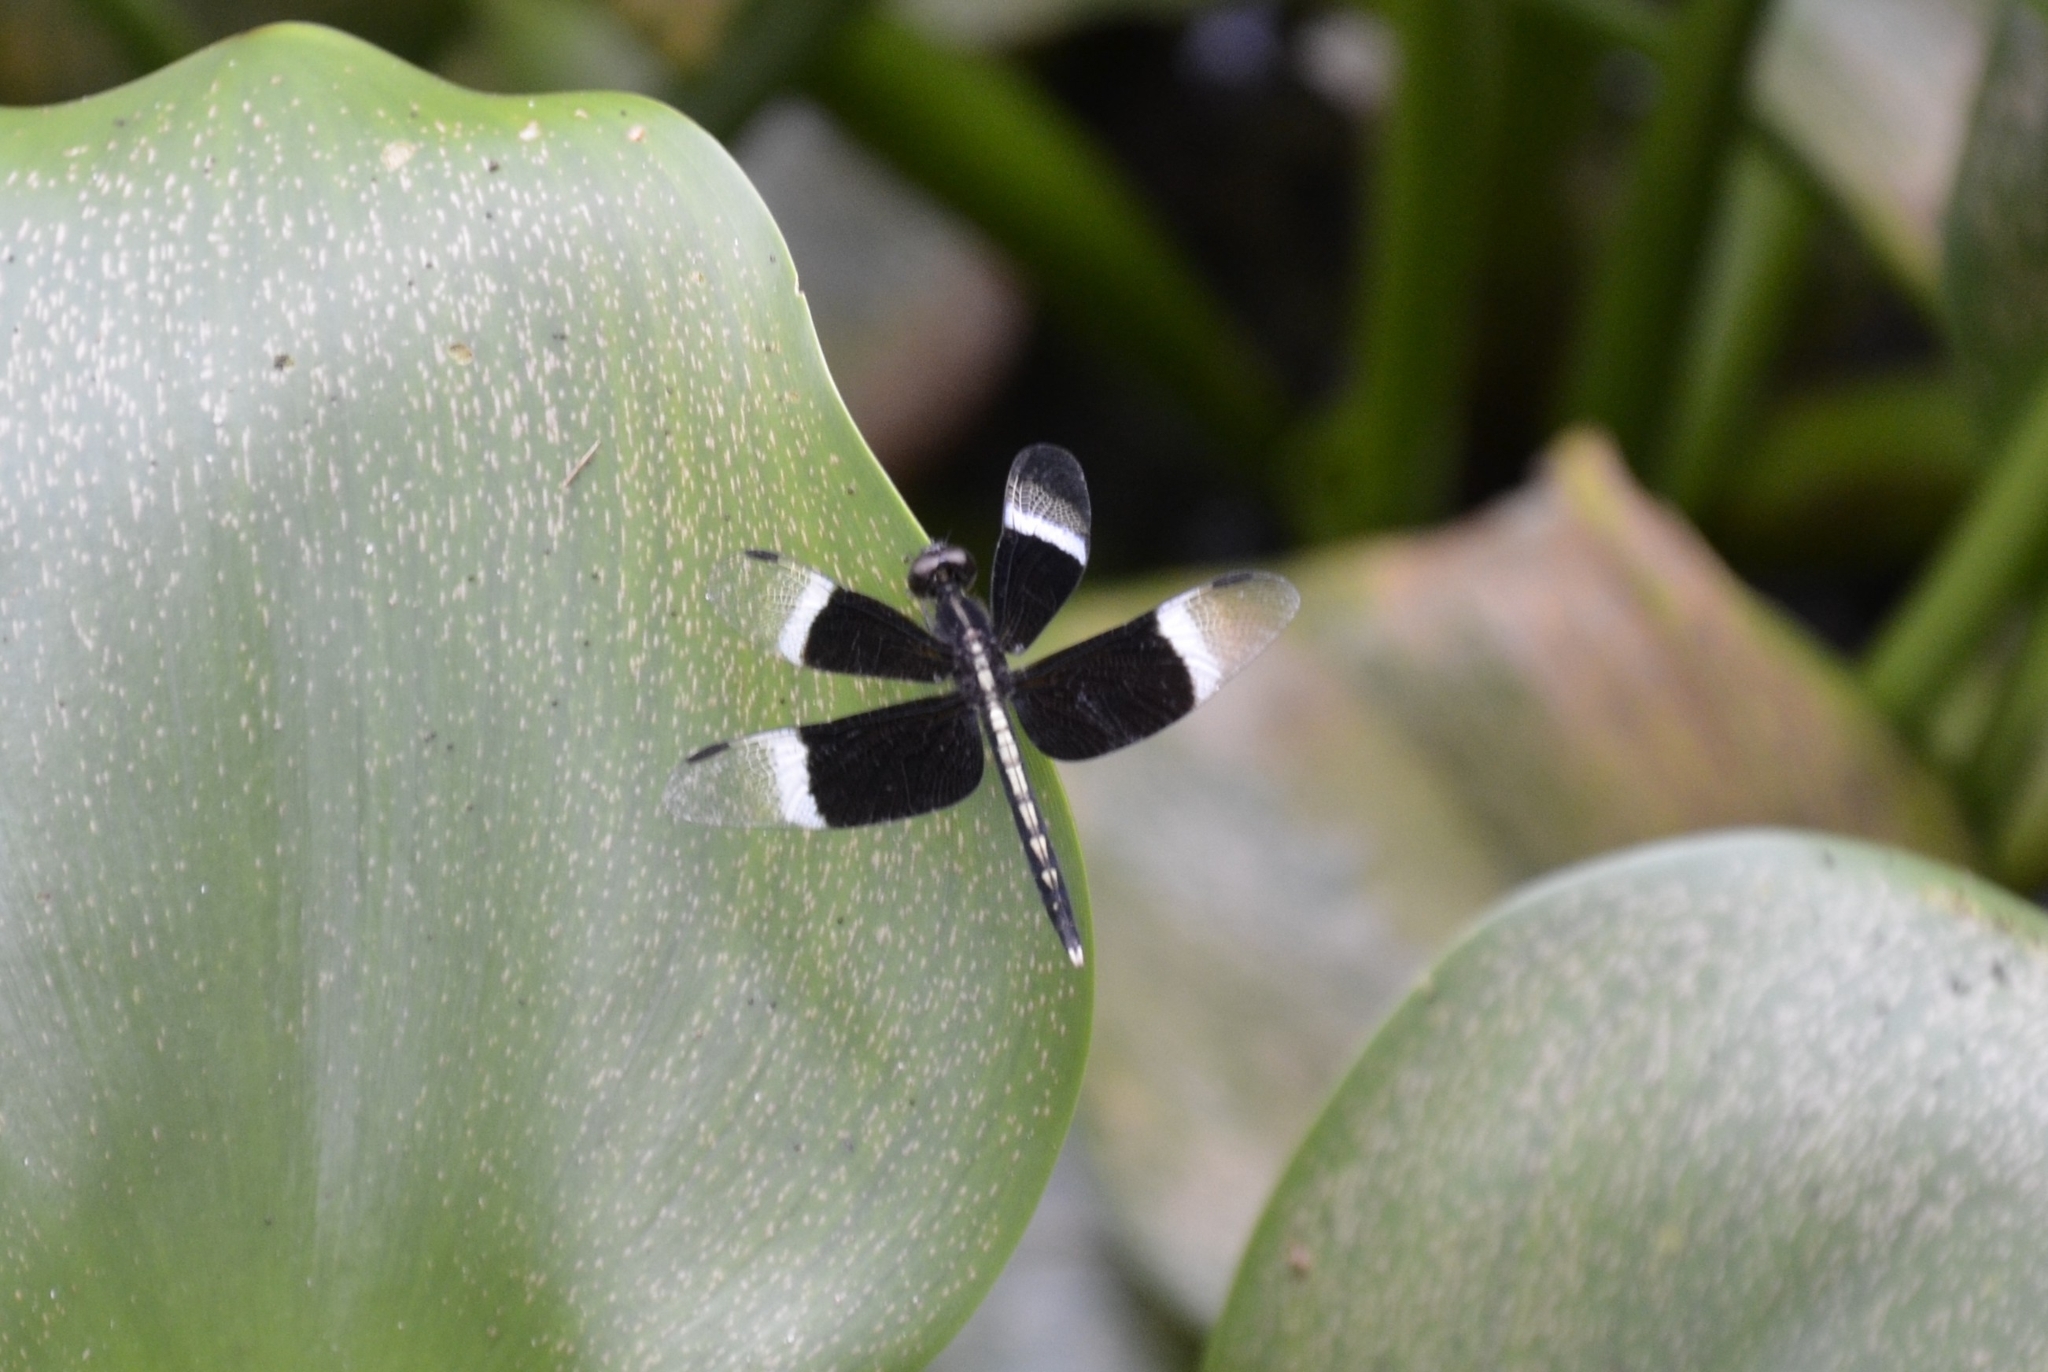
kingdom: Animalia
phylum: Arthropoda
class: Insecta
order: Odonata
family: Libellulidae
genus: Neurothemis
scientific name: Neurothemis tullia
